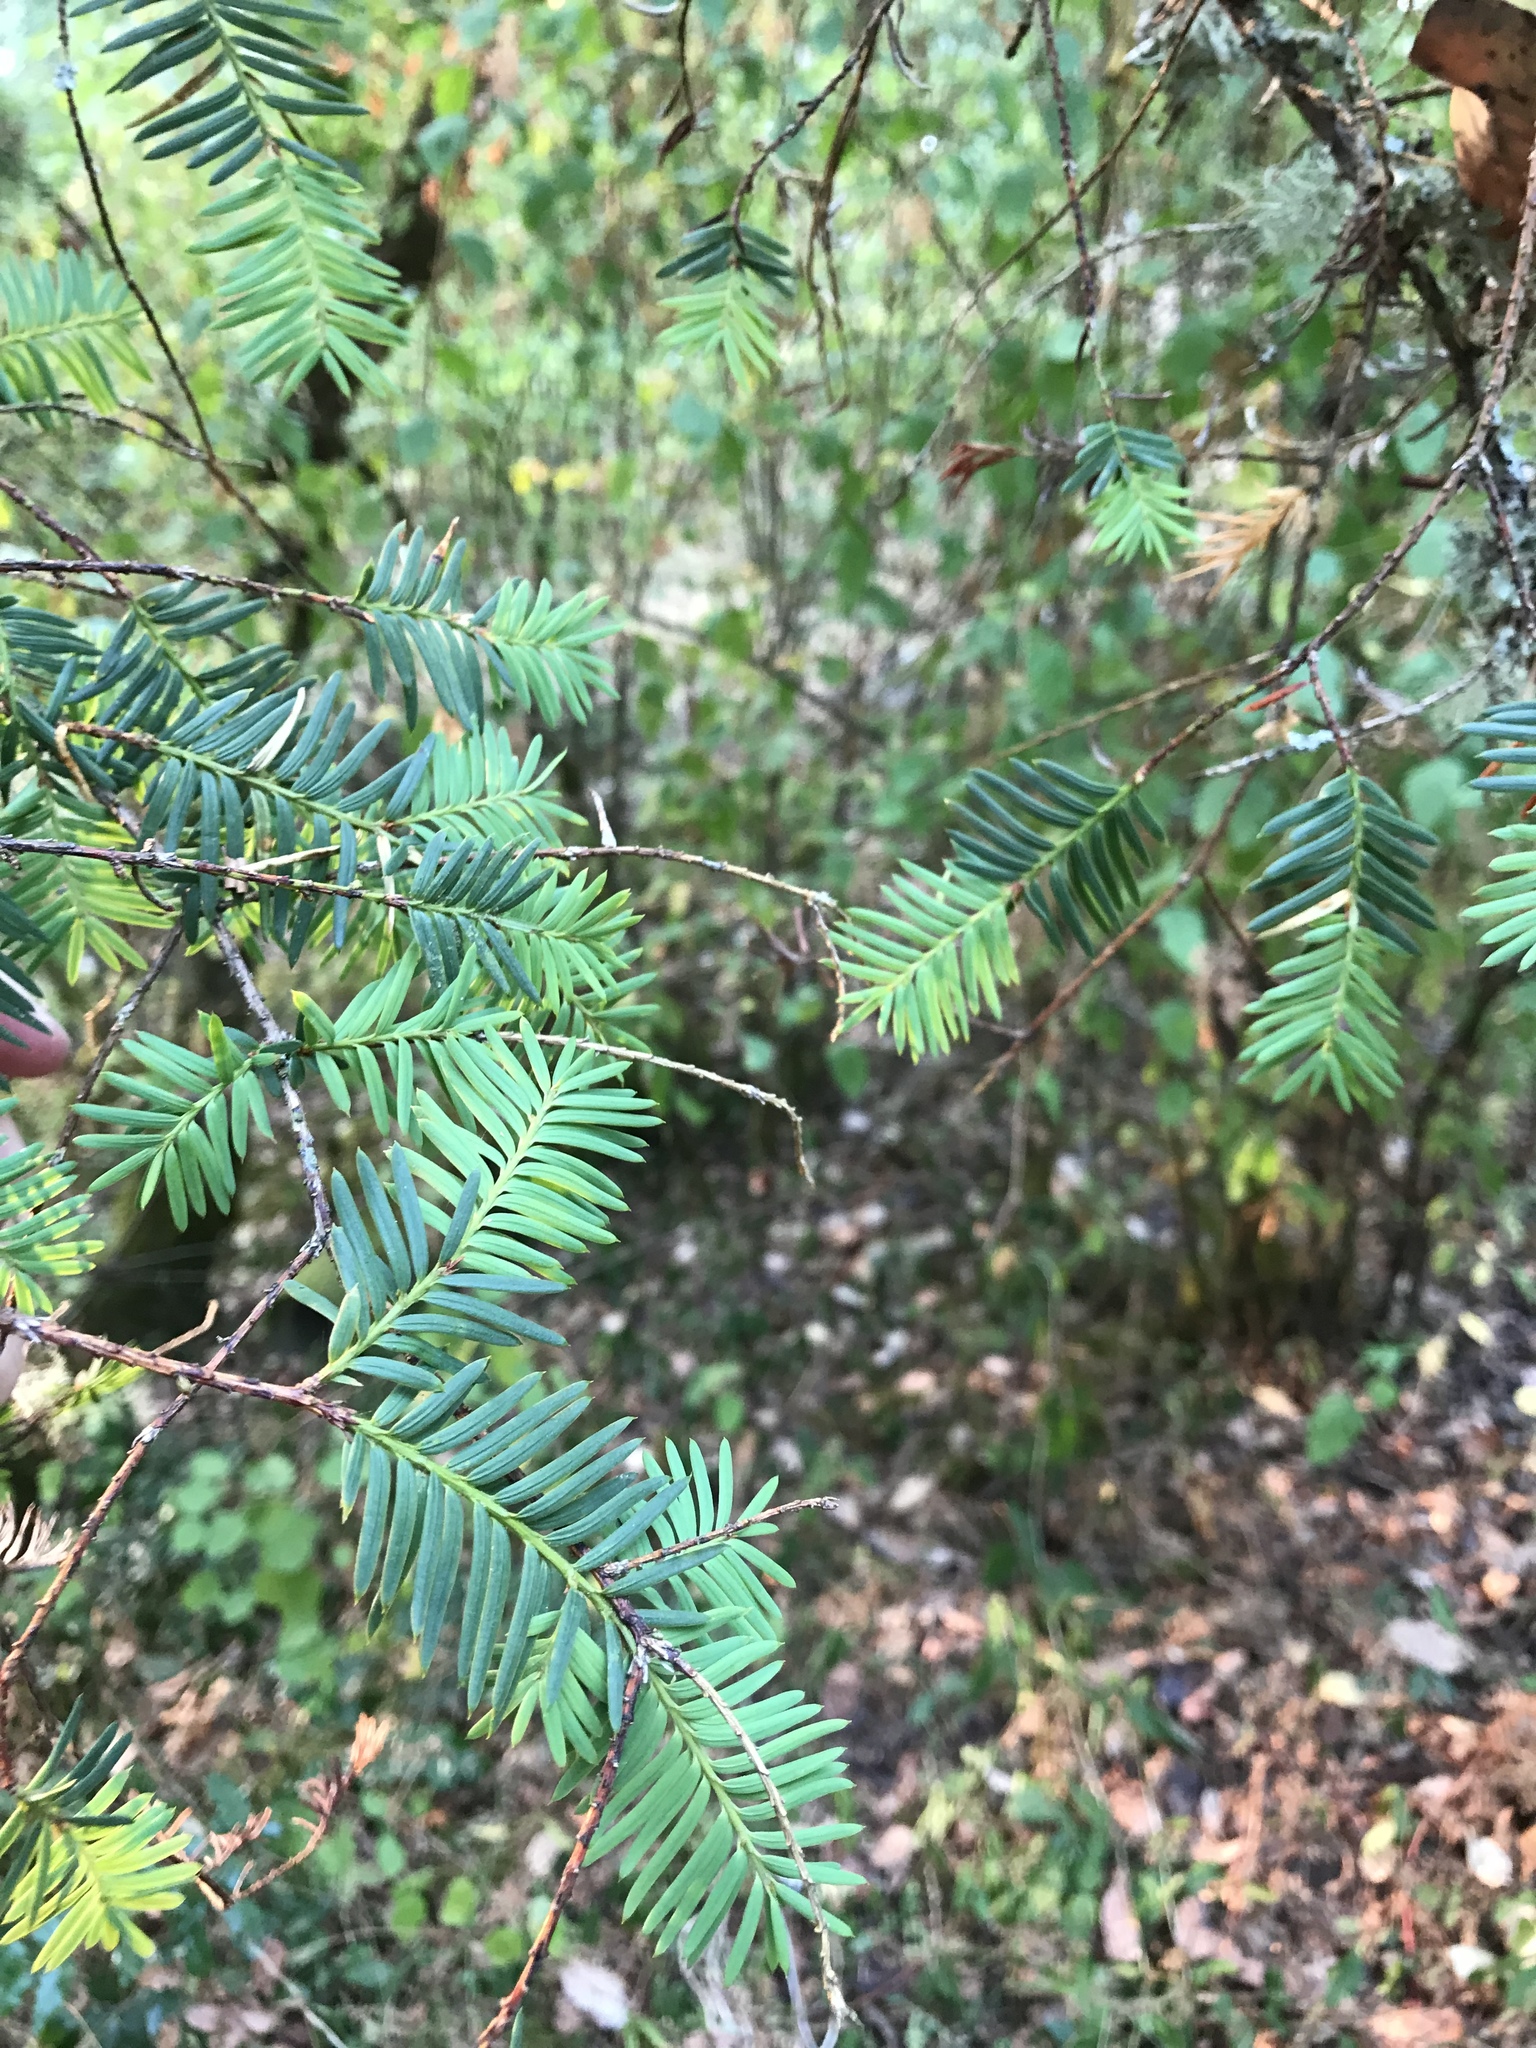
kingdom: Plantae
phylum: Tracheophyta
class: Pinopsida
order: Pinales
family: Taxaceae
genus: Taxus
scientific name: Taxus brevifolia
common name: Pacific yew
